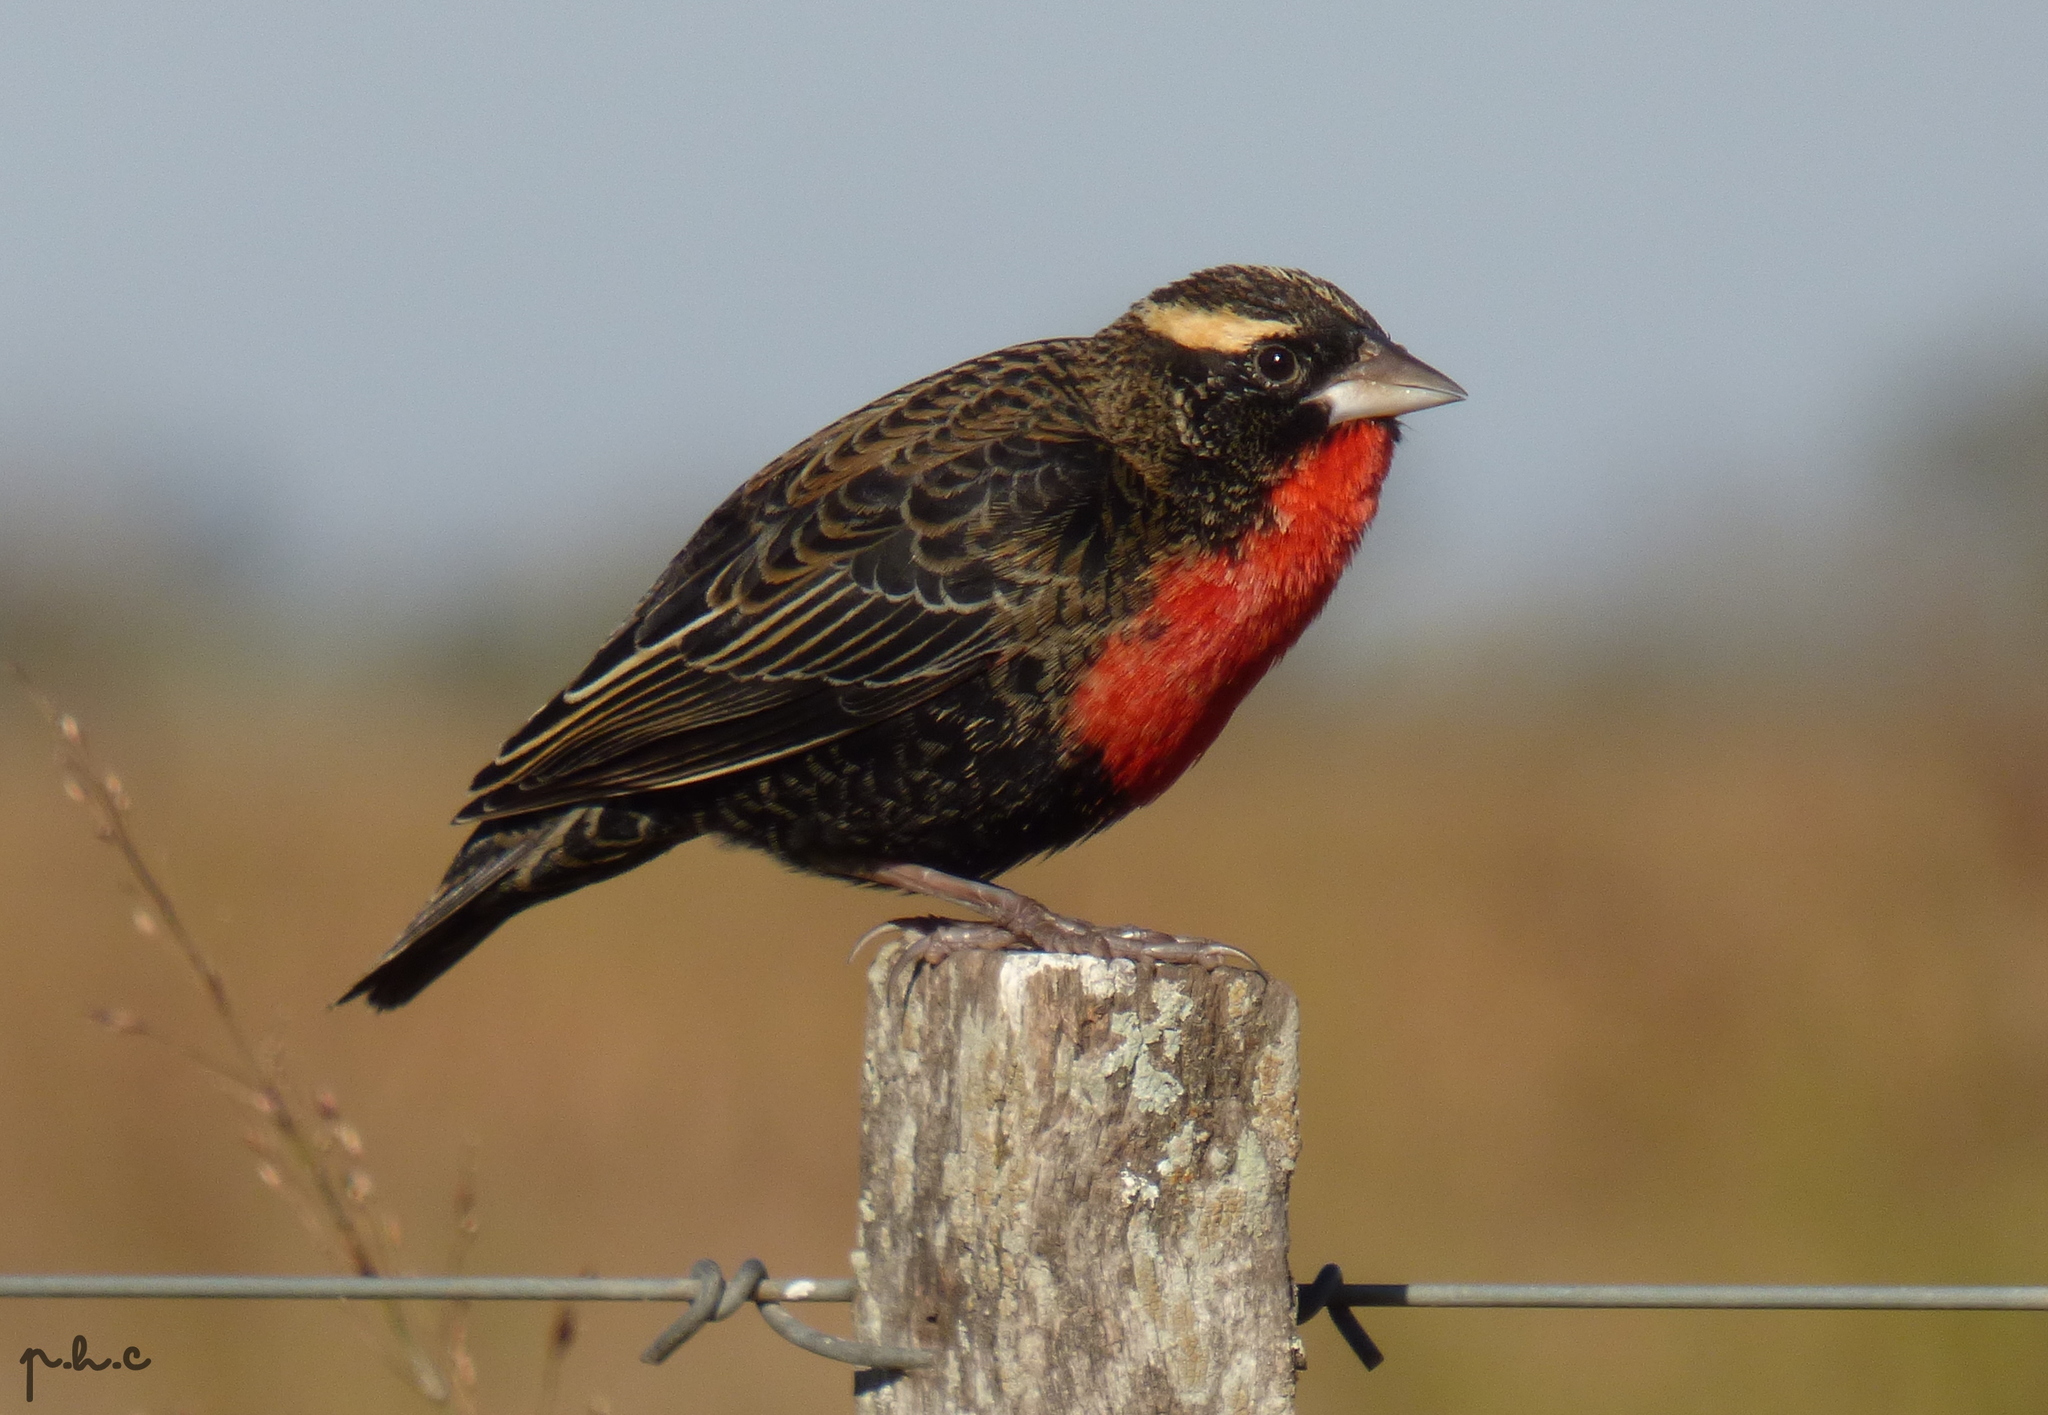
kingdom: Animalia
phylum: Chordata
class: Aves
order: Passeriformes
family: Icteridae
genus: Sturnella
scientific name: Sturnella superciliaris
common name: White-browed blackbird
